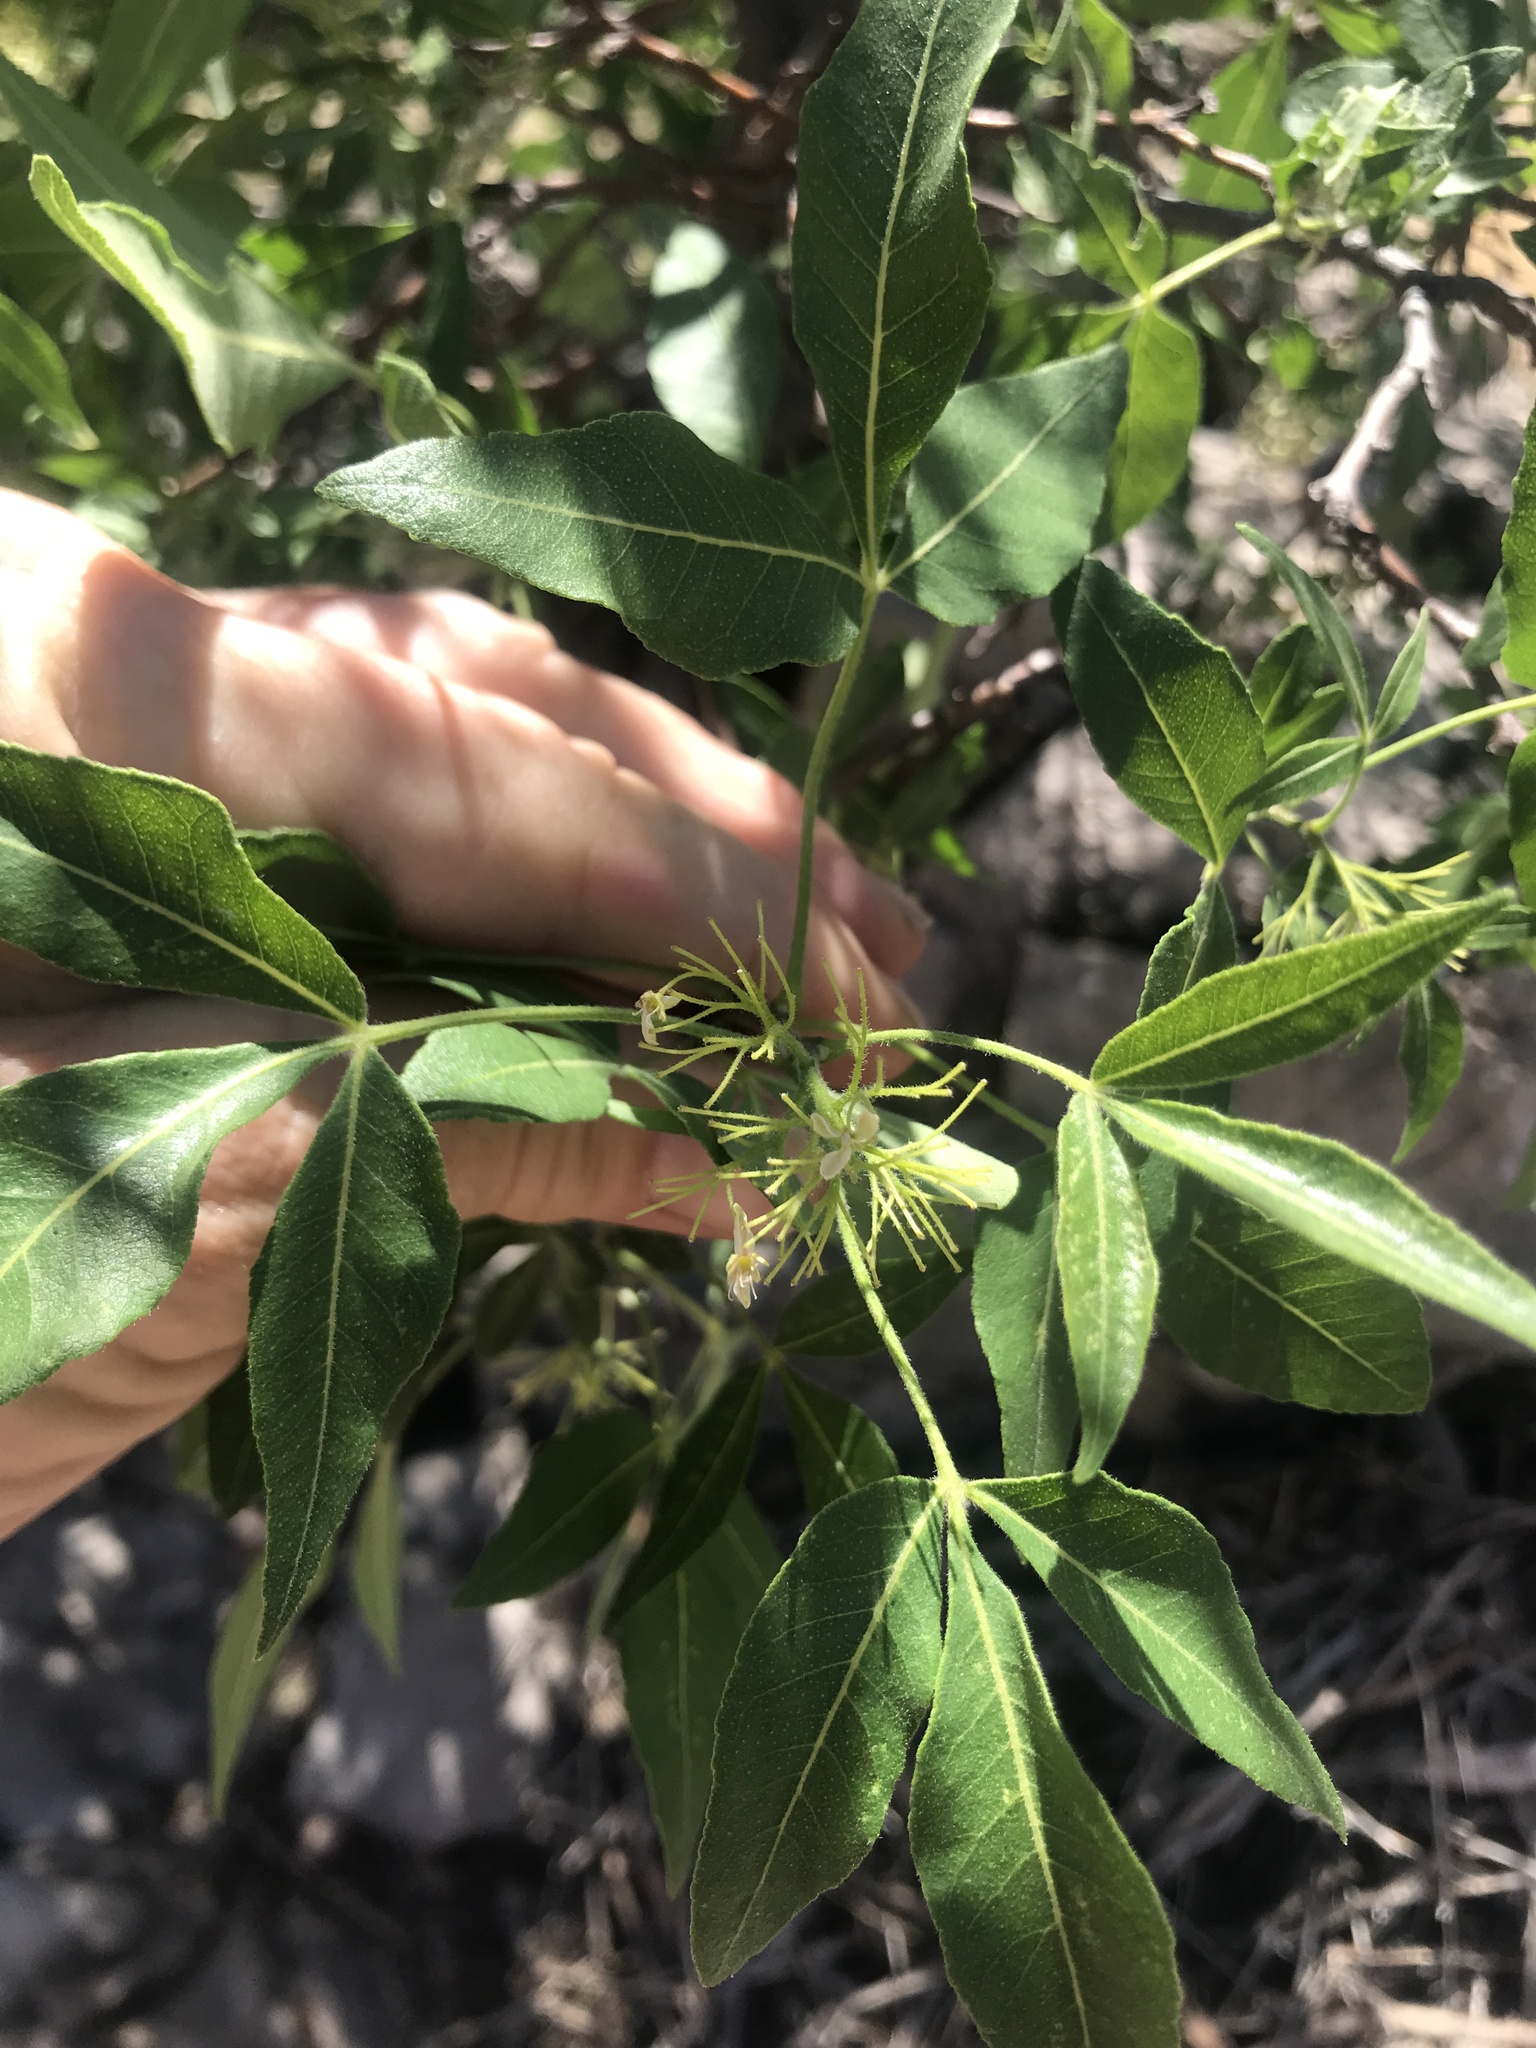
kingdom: Plantae
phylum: Tracheophyta
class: Magnoliopsida
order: Sapindales
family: Rutaceae
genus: Ptelea
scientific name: Ptelea trifoliata
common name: Common hop-tree
